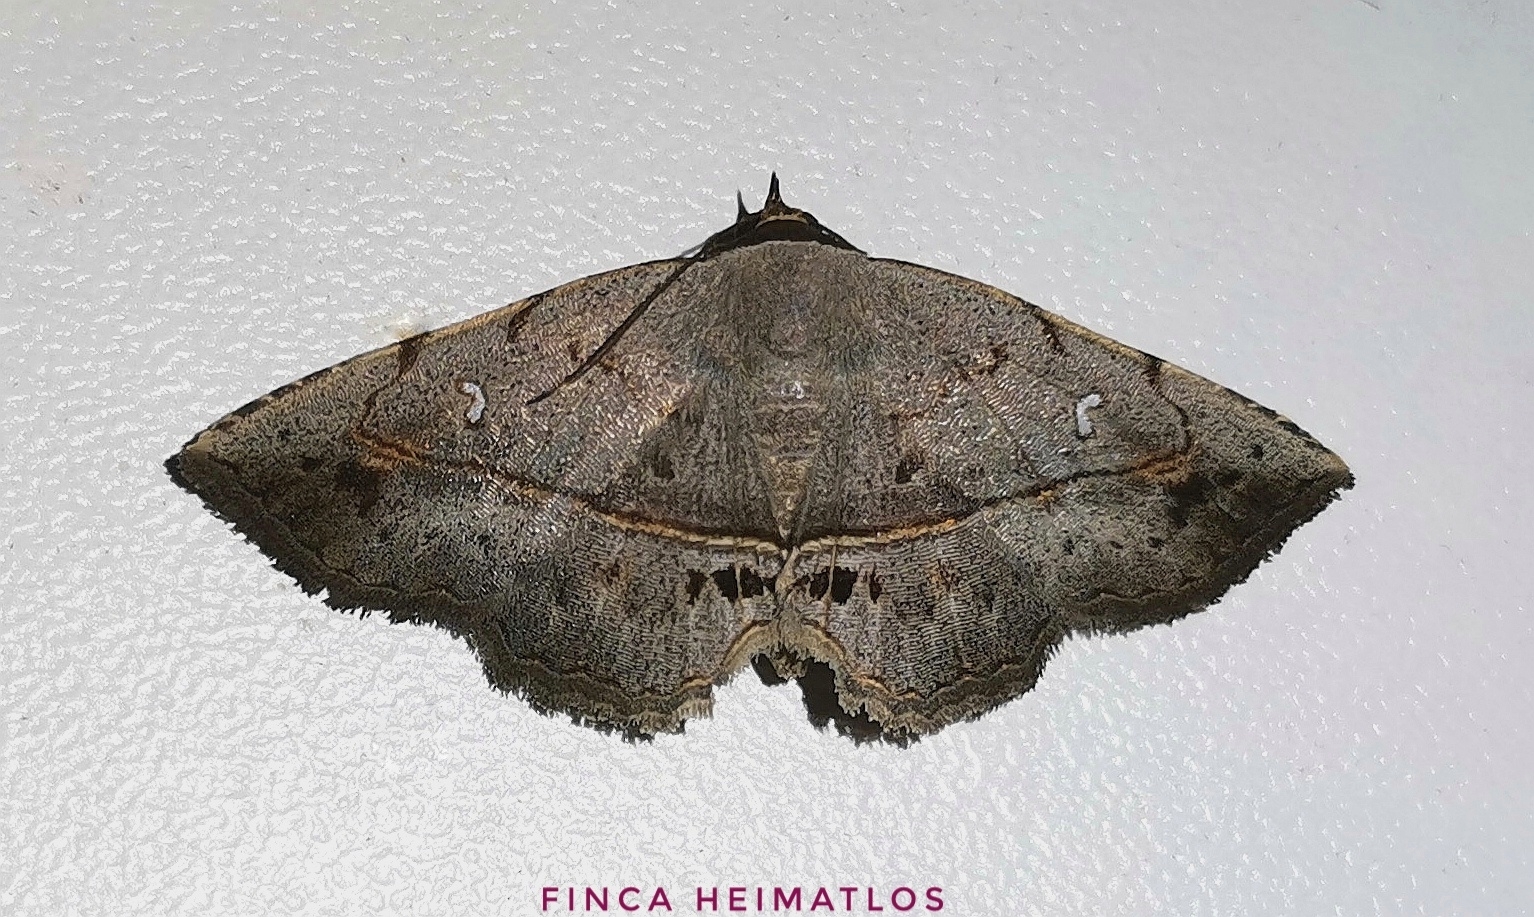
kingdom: Animalia
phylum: Arthropoda
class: Insecta
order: Lepidoptera
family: Erebidae
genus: Renodes
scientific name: Renodes curviluna
